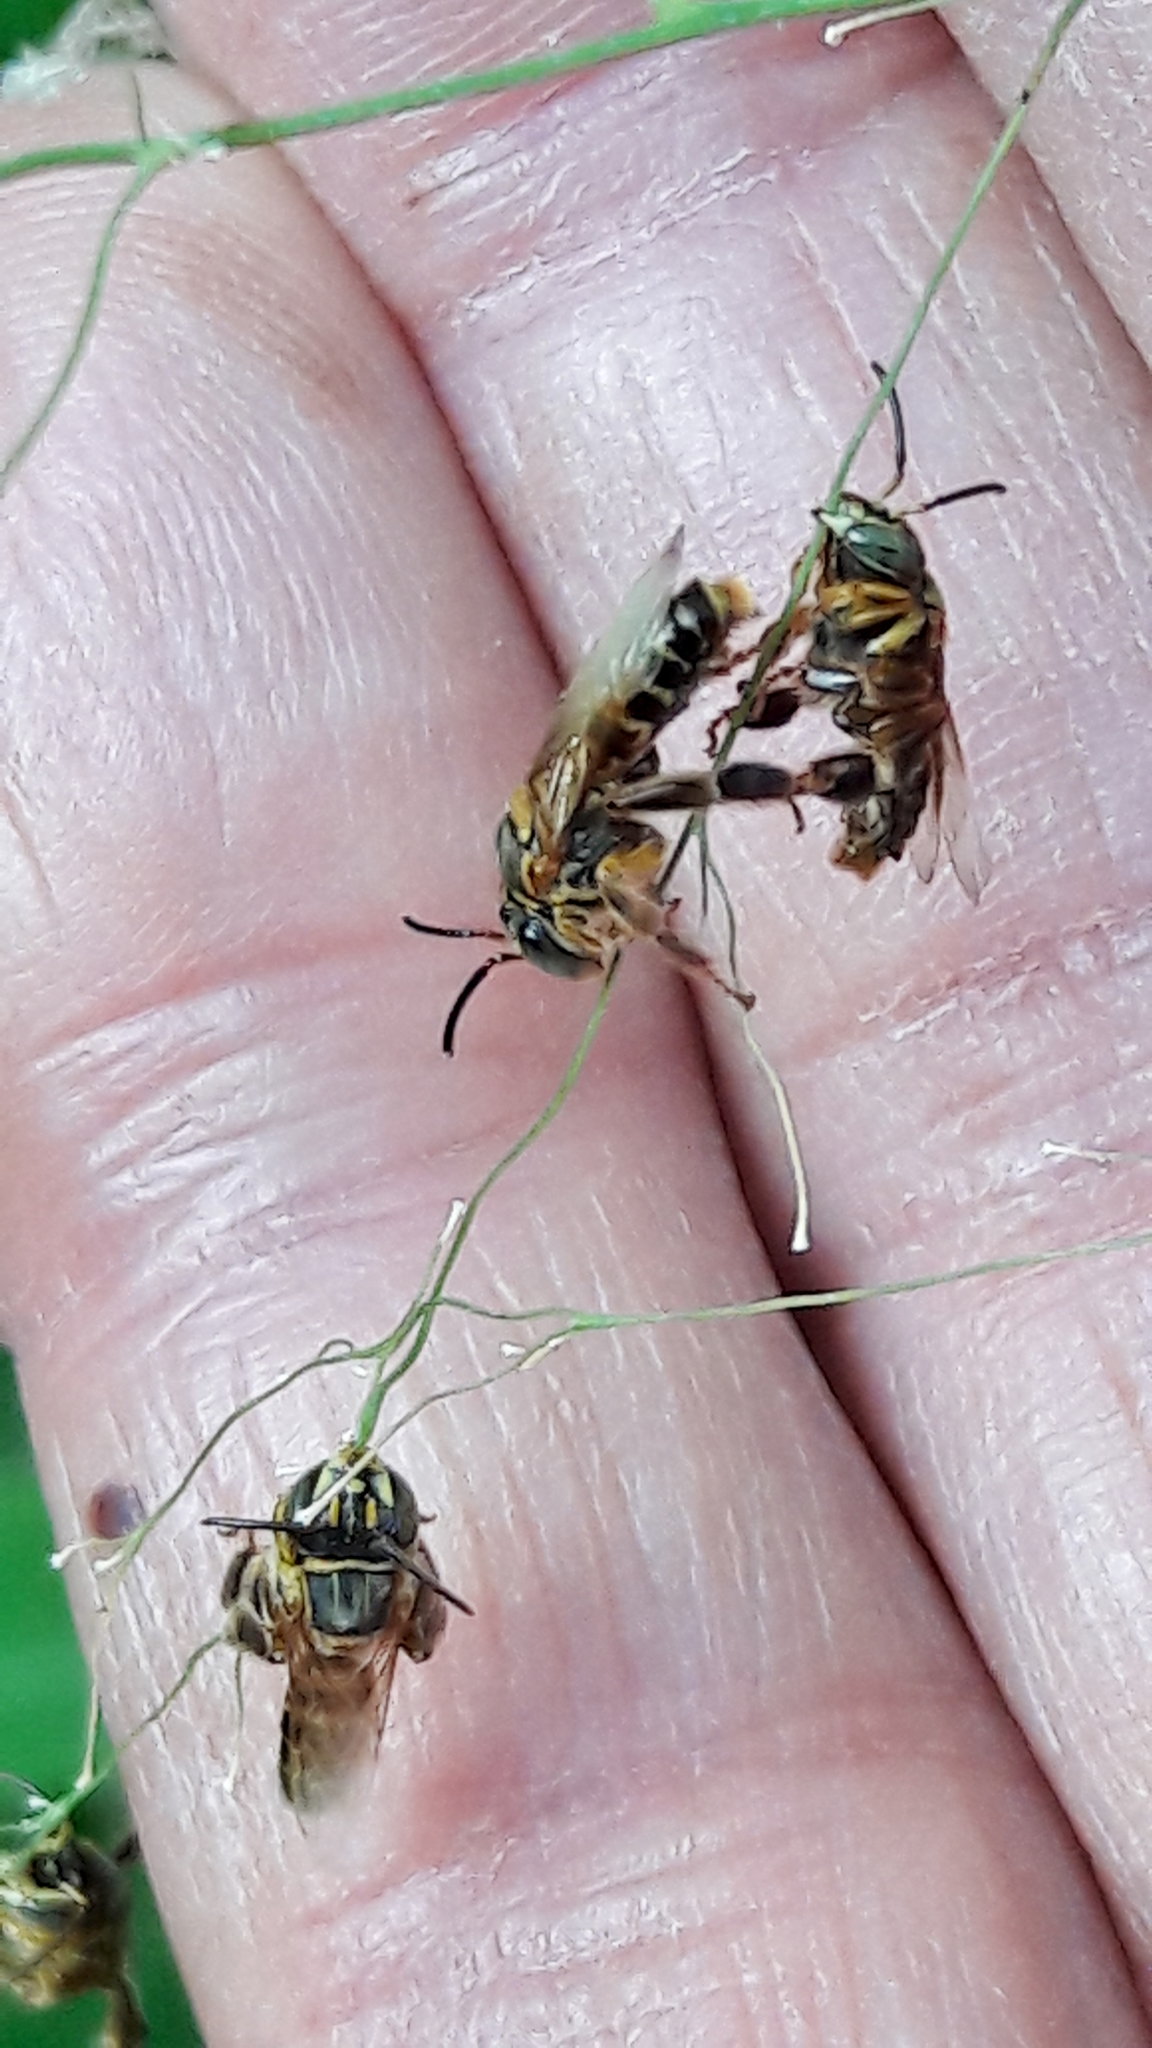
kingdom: Animalia
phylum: Arthropoda
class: Insecta
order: Hymenoptera
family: Apidae
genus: Paratetrapedia
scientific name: Paratetrapedia flaveola
